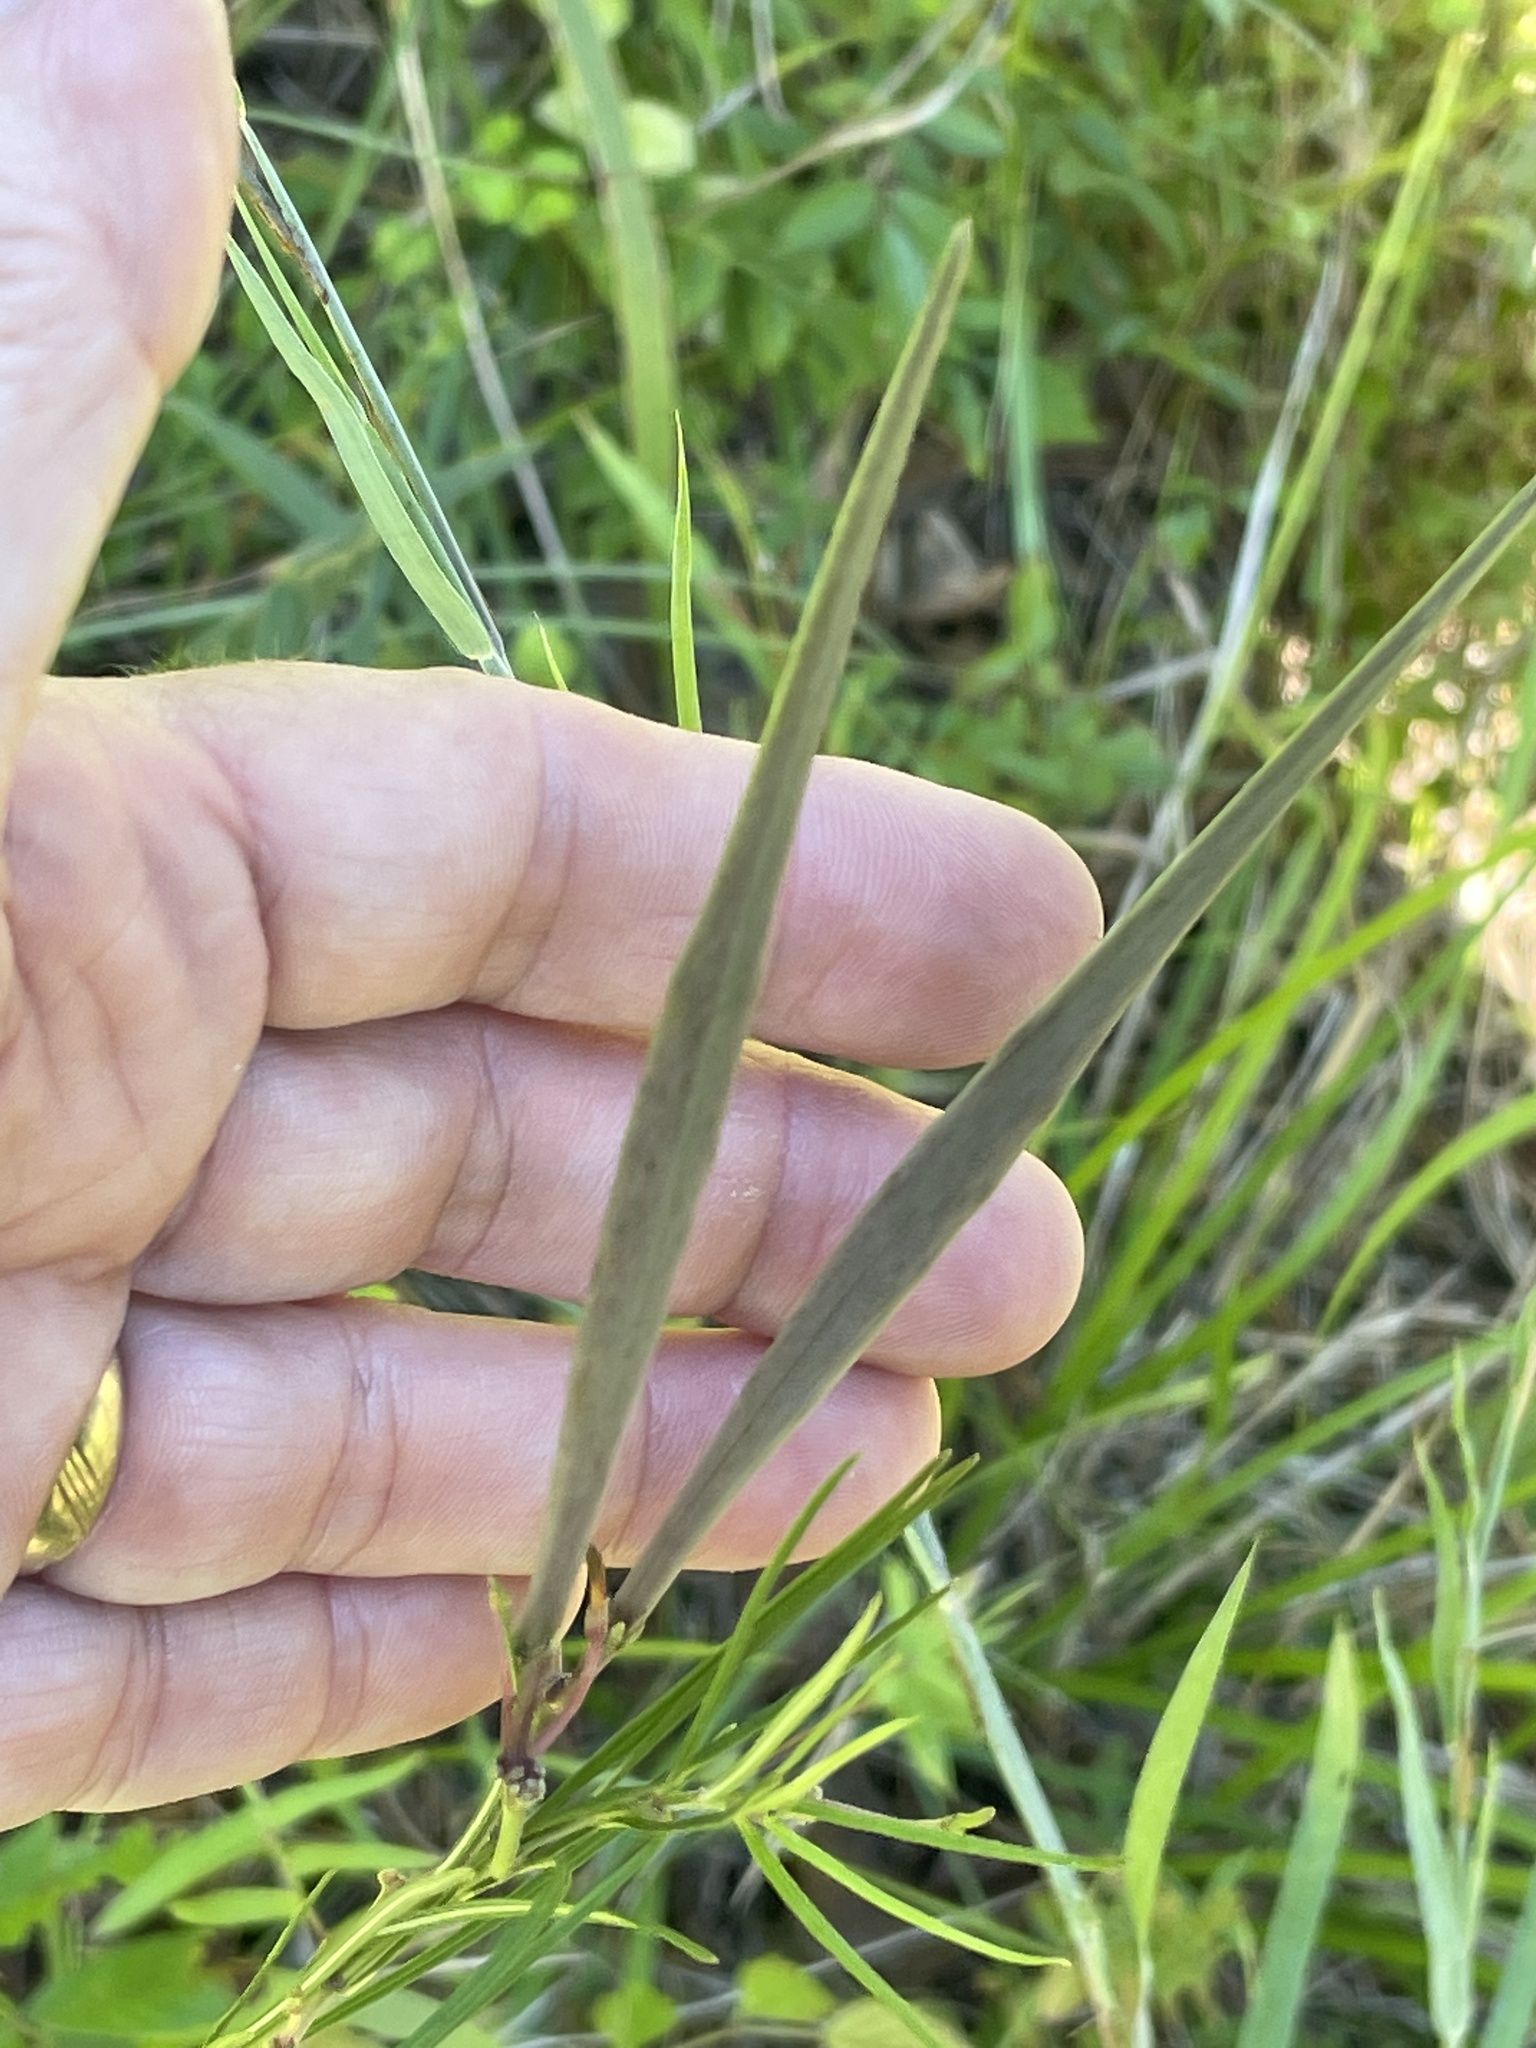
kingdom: Plantae
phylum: Tracheophyta
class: Magnoliopsida
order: Gentianales
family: Apocynaceae
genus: Asclepias
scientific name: Asclepias verticillata
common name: Eastern whorled milkweed
